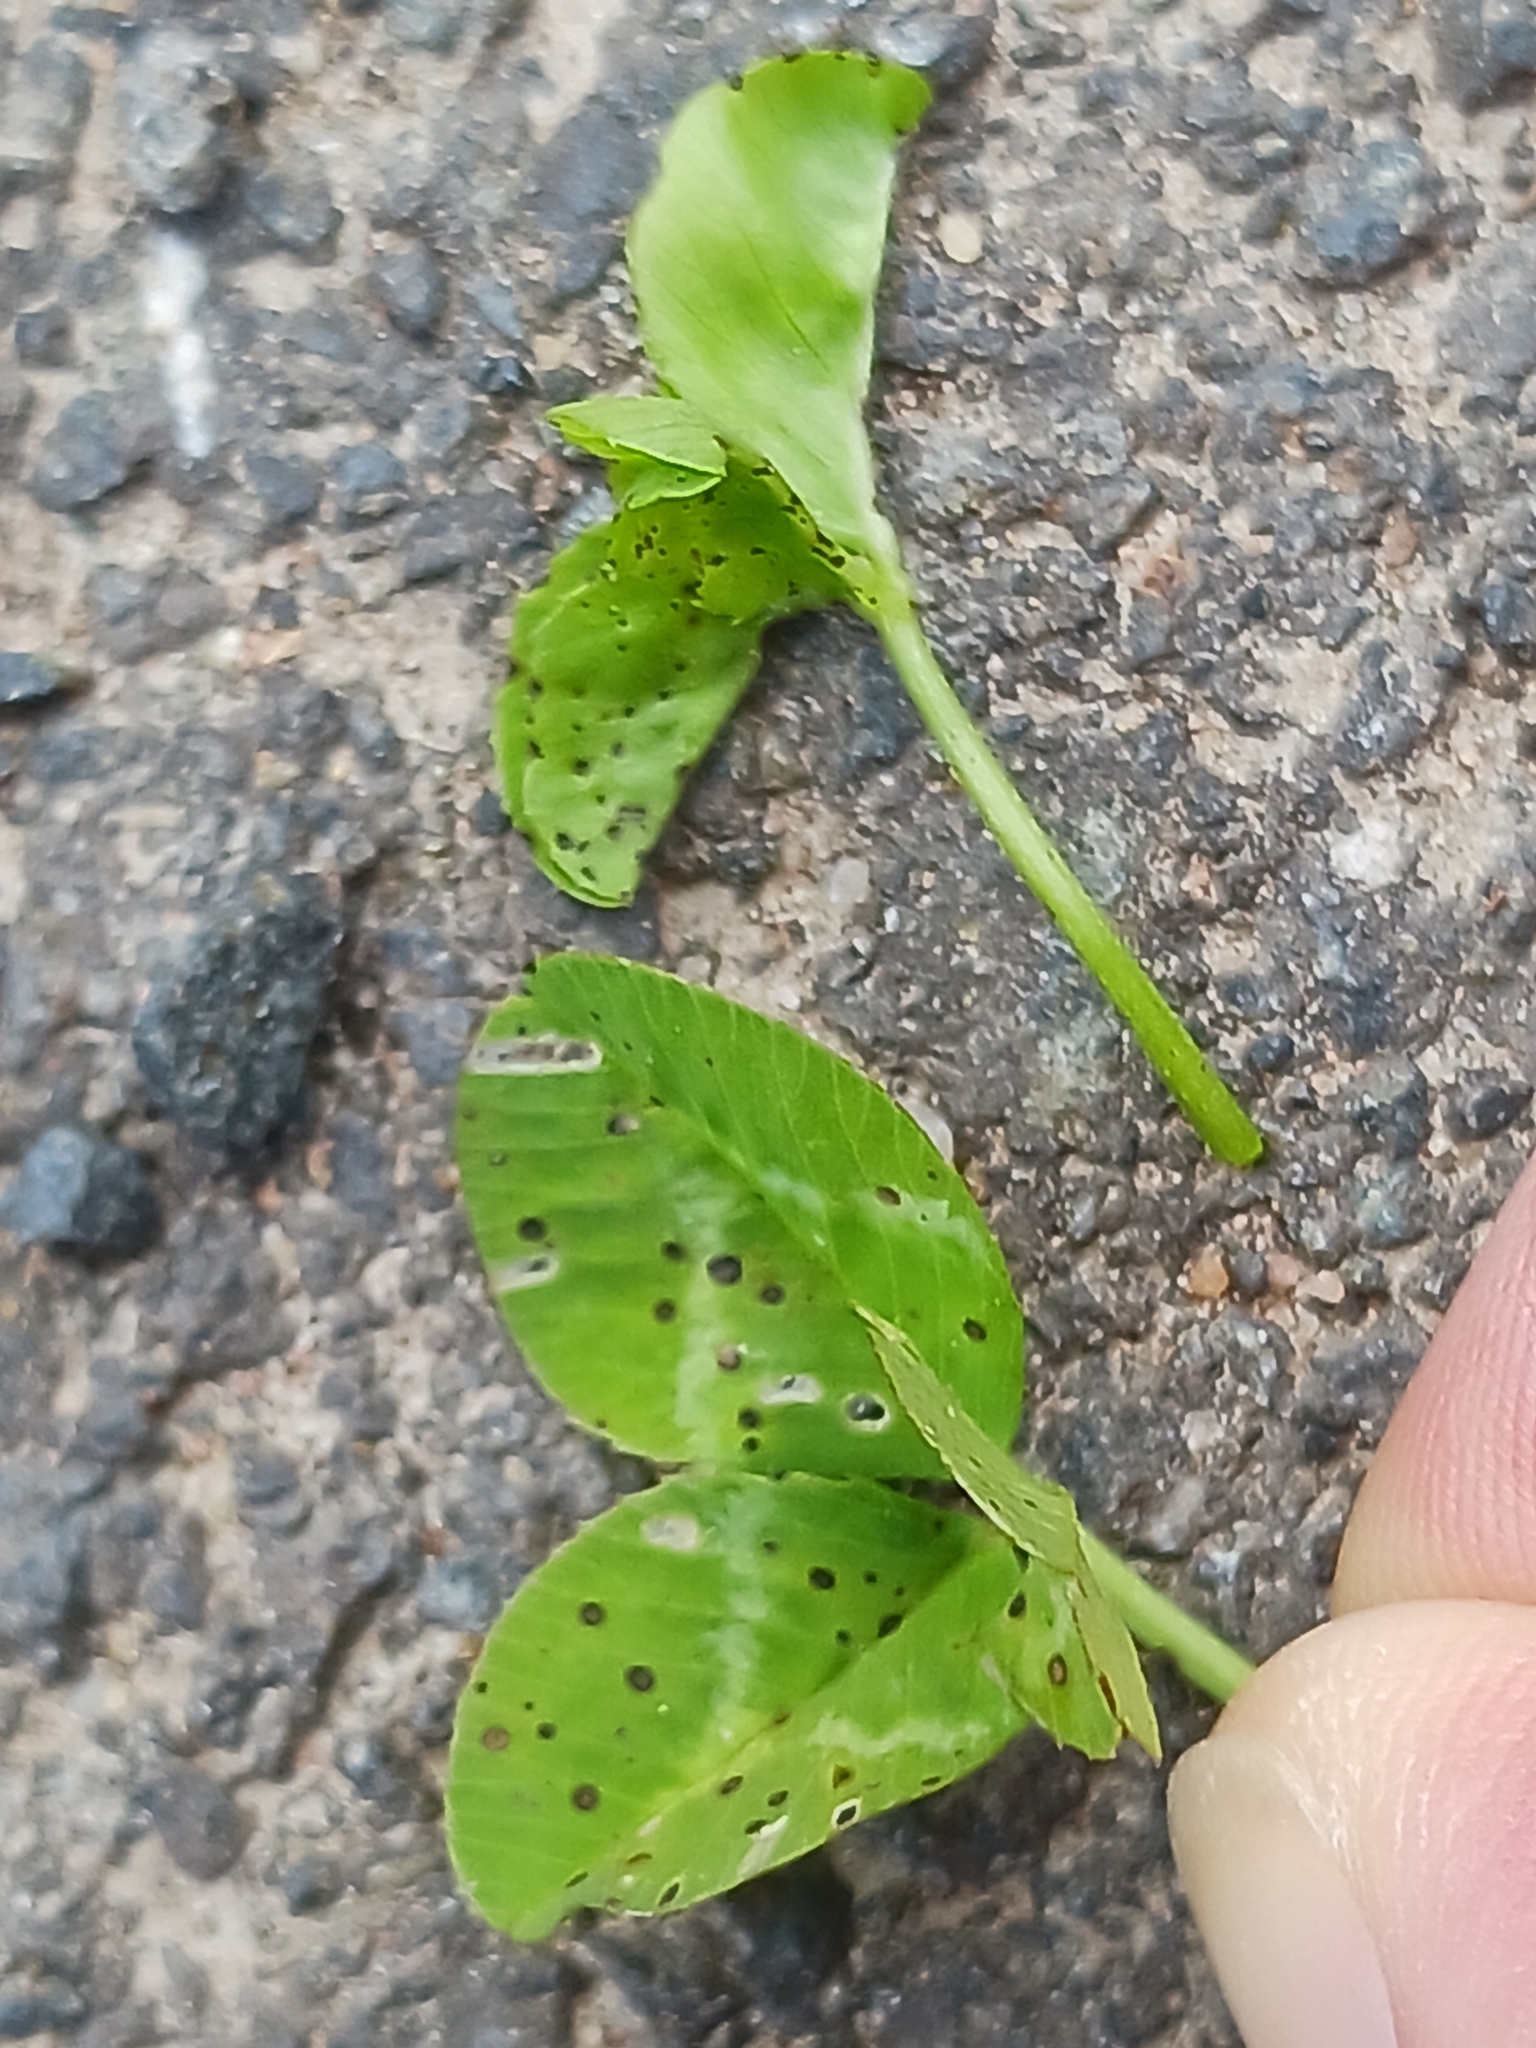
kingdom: Fungi
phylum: Ascomycota
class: Leotiomycetes
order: Helotiales
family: Drepanopezizaceae
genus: Pseudopeziza
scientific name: Pseudopeziza trifolii
